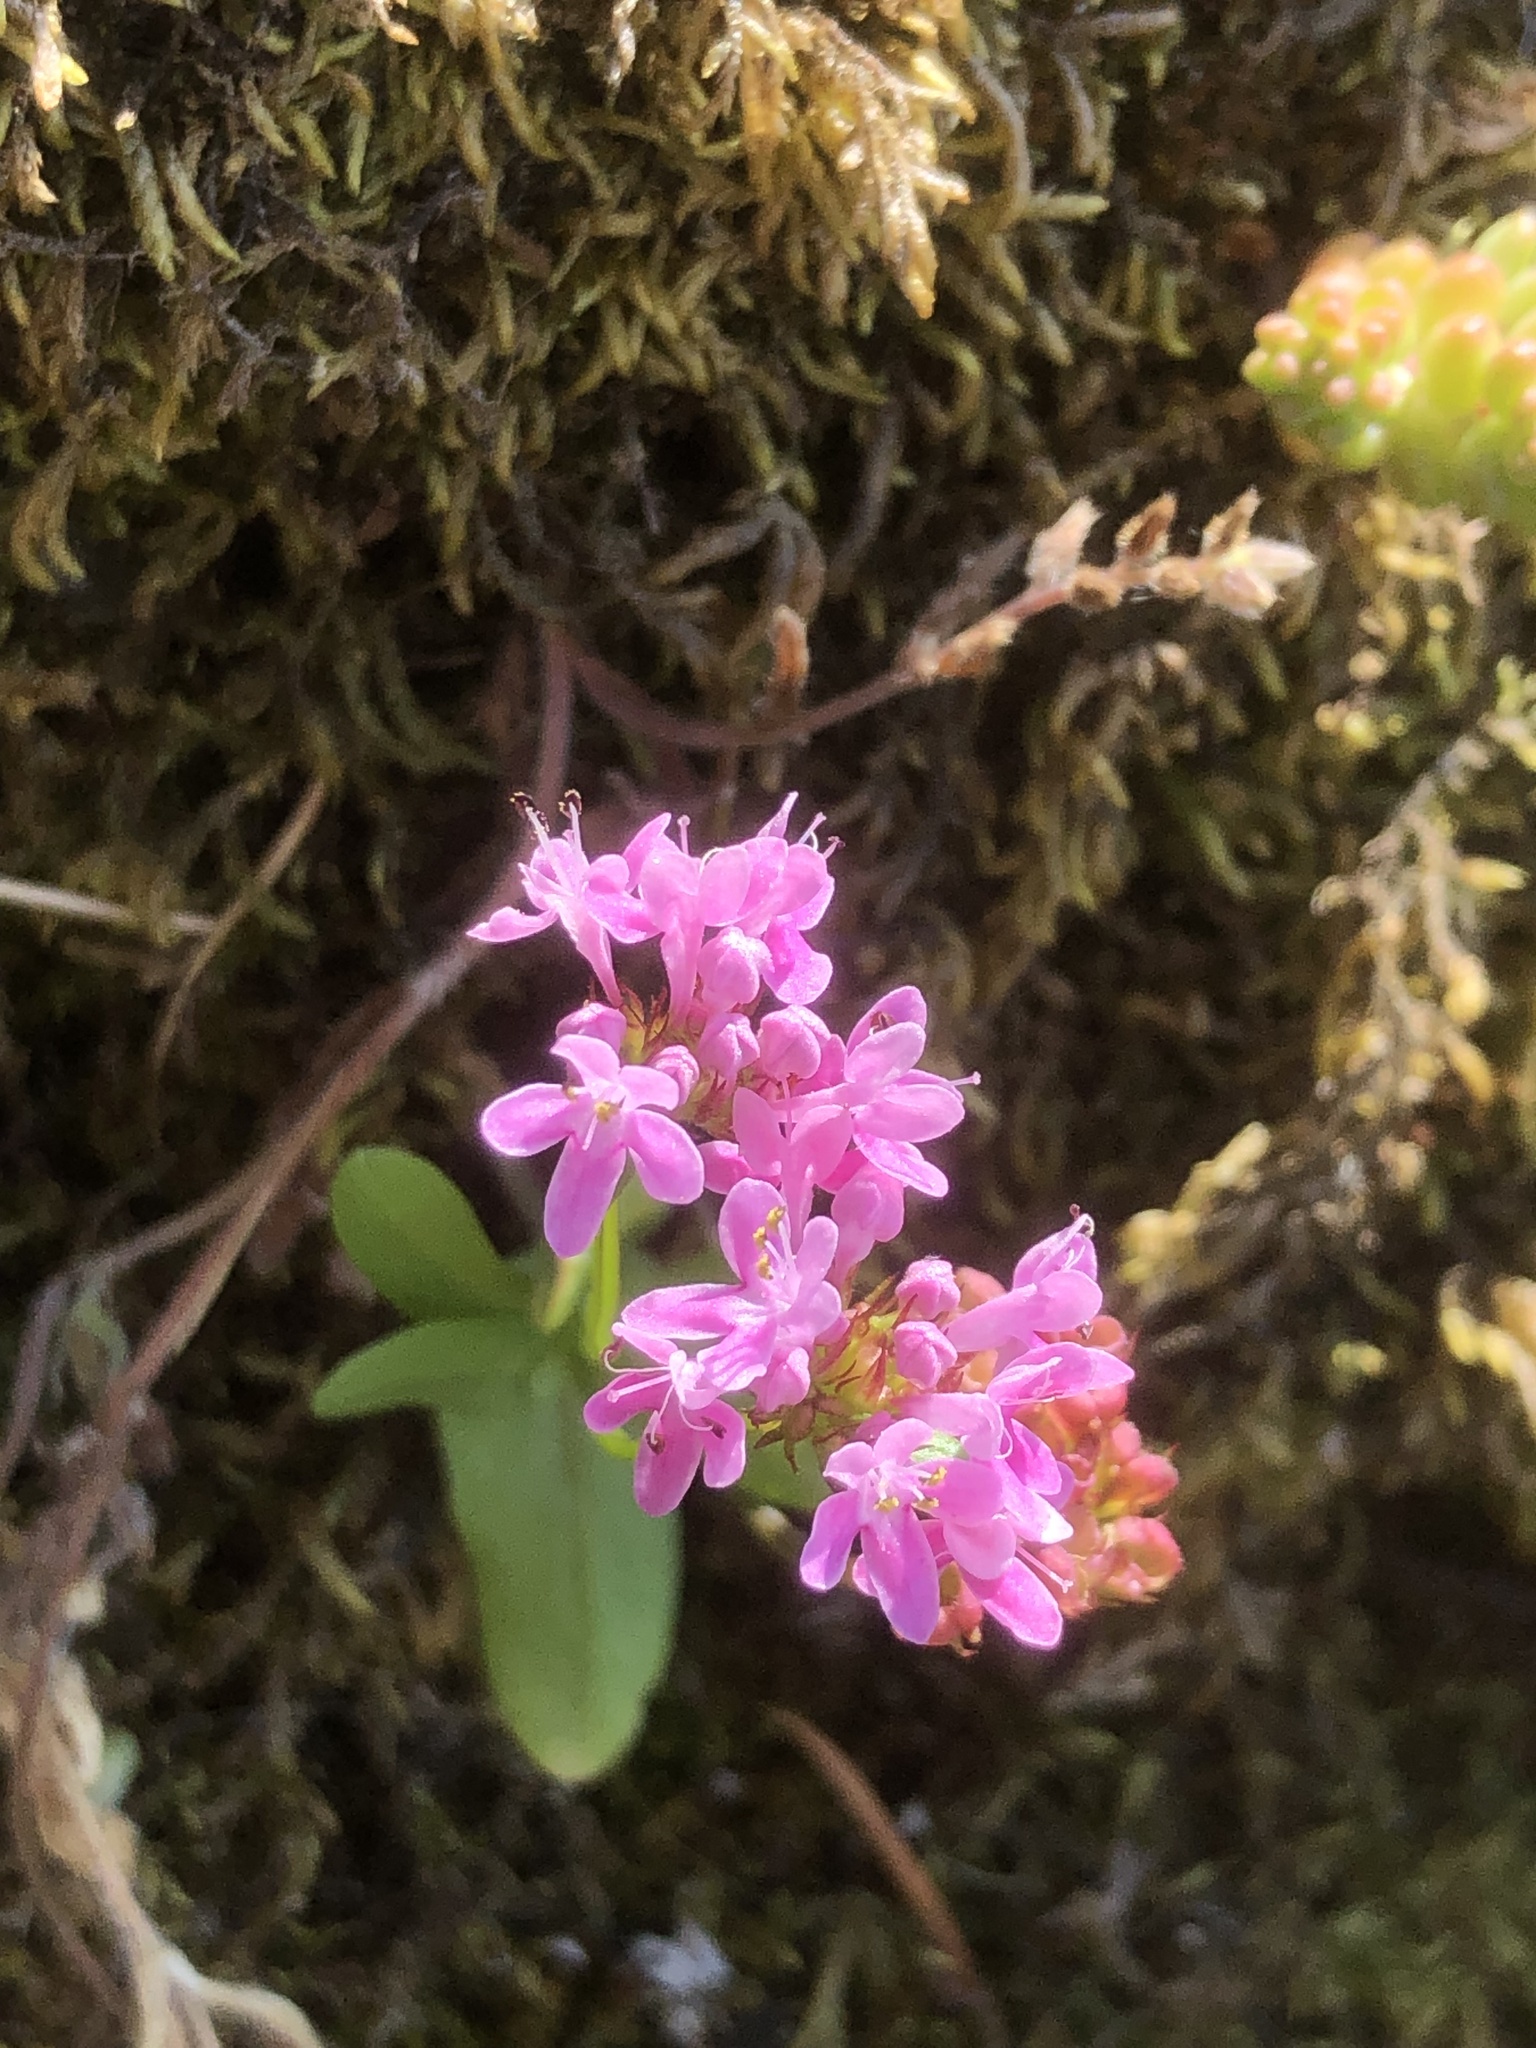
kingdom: Plantae
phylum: Tracheophyta
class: Magnoliopsida
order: Dipsacales
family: Caprifoliaceae
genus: Plectritis
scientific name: Plectritis congesta
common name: Pink plectritis
